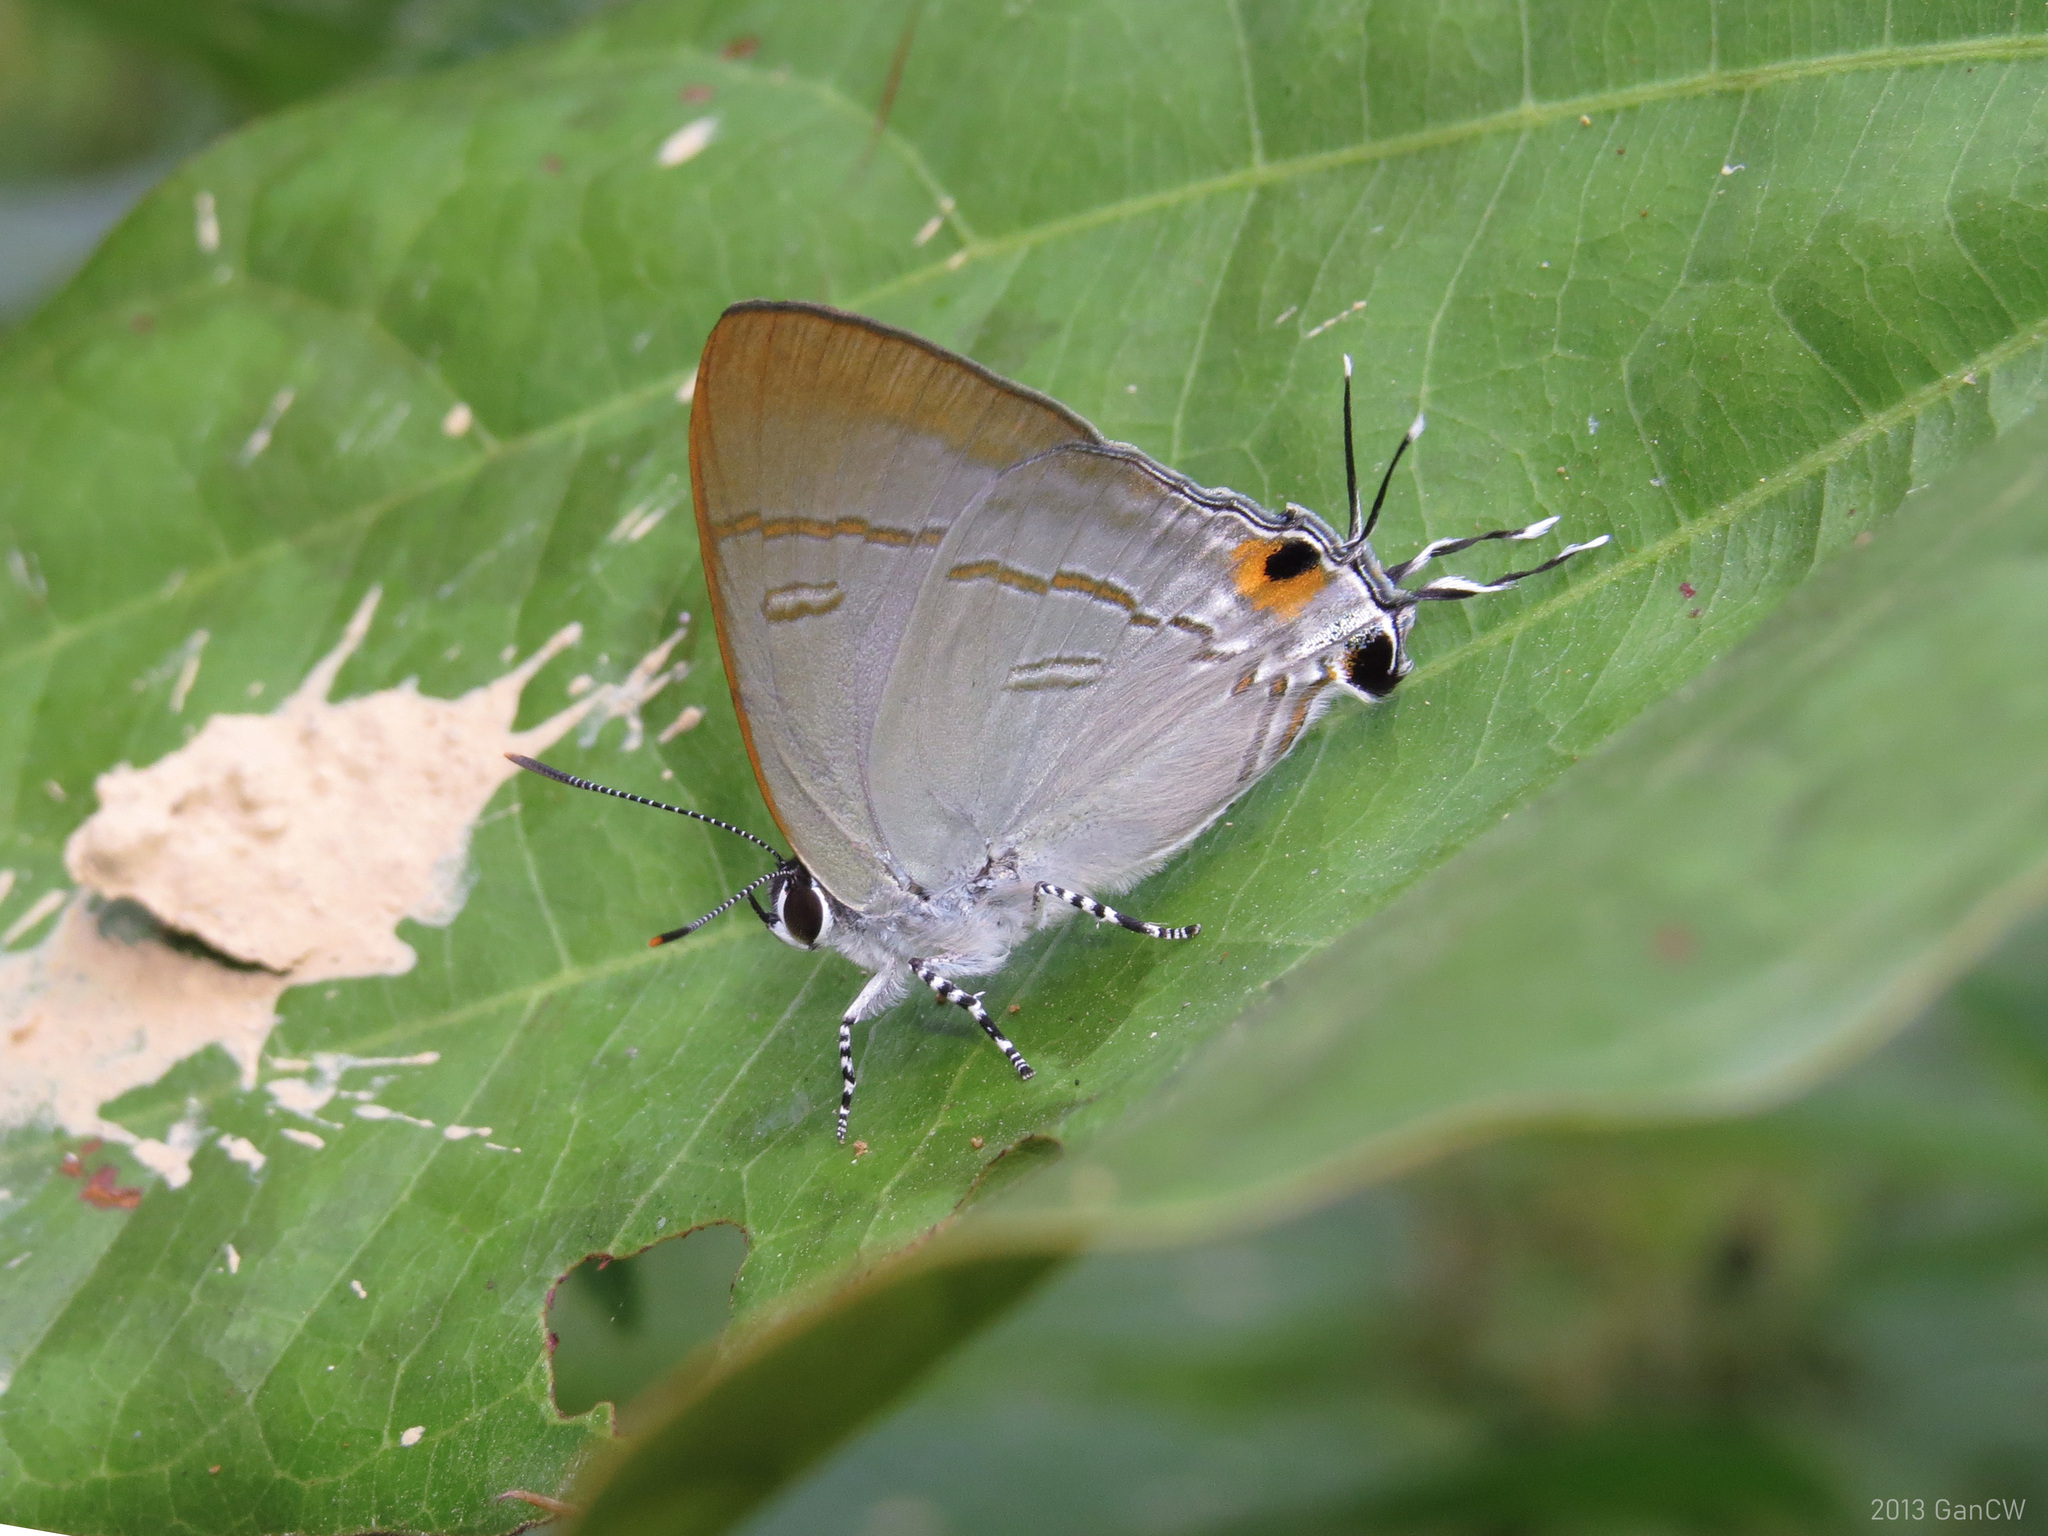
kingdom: Animalia
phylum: Arthropoda
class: Insecta
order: Lepidoptera
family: Lycaenidae
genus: Hypolycaena
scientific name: Hypolycaena erylus
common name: Common tit
